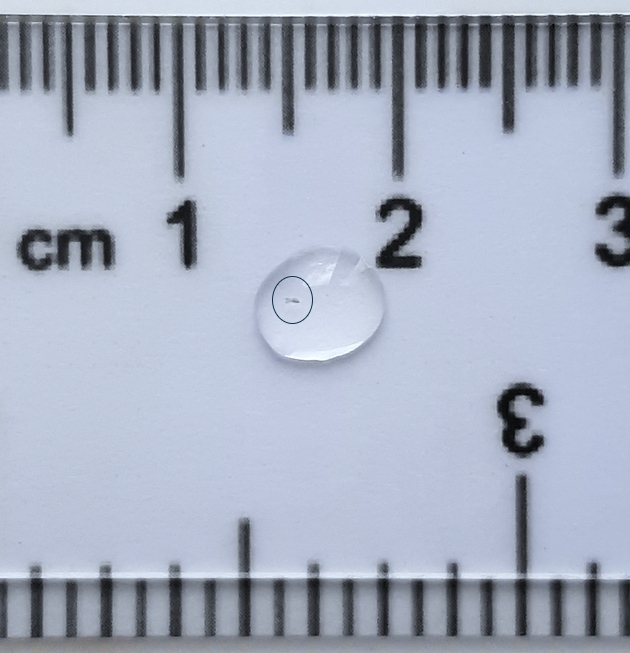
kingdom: Animalia
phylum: Arthropoda
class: Copepoda
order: Cyclopoida
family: Cyclopidae
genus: Cryptocyclops
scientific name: Cryptocyclops bicolor
